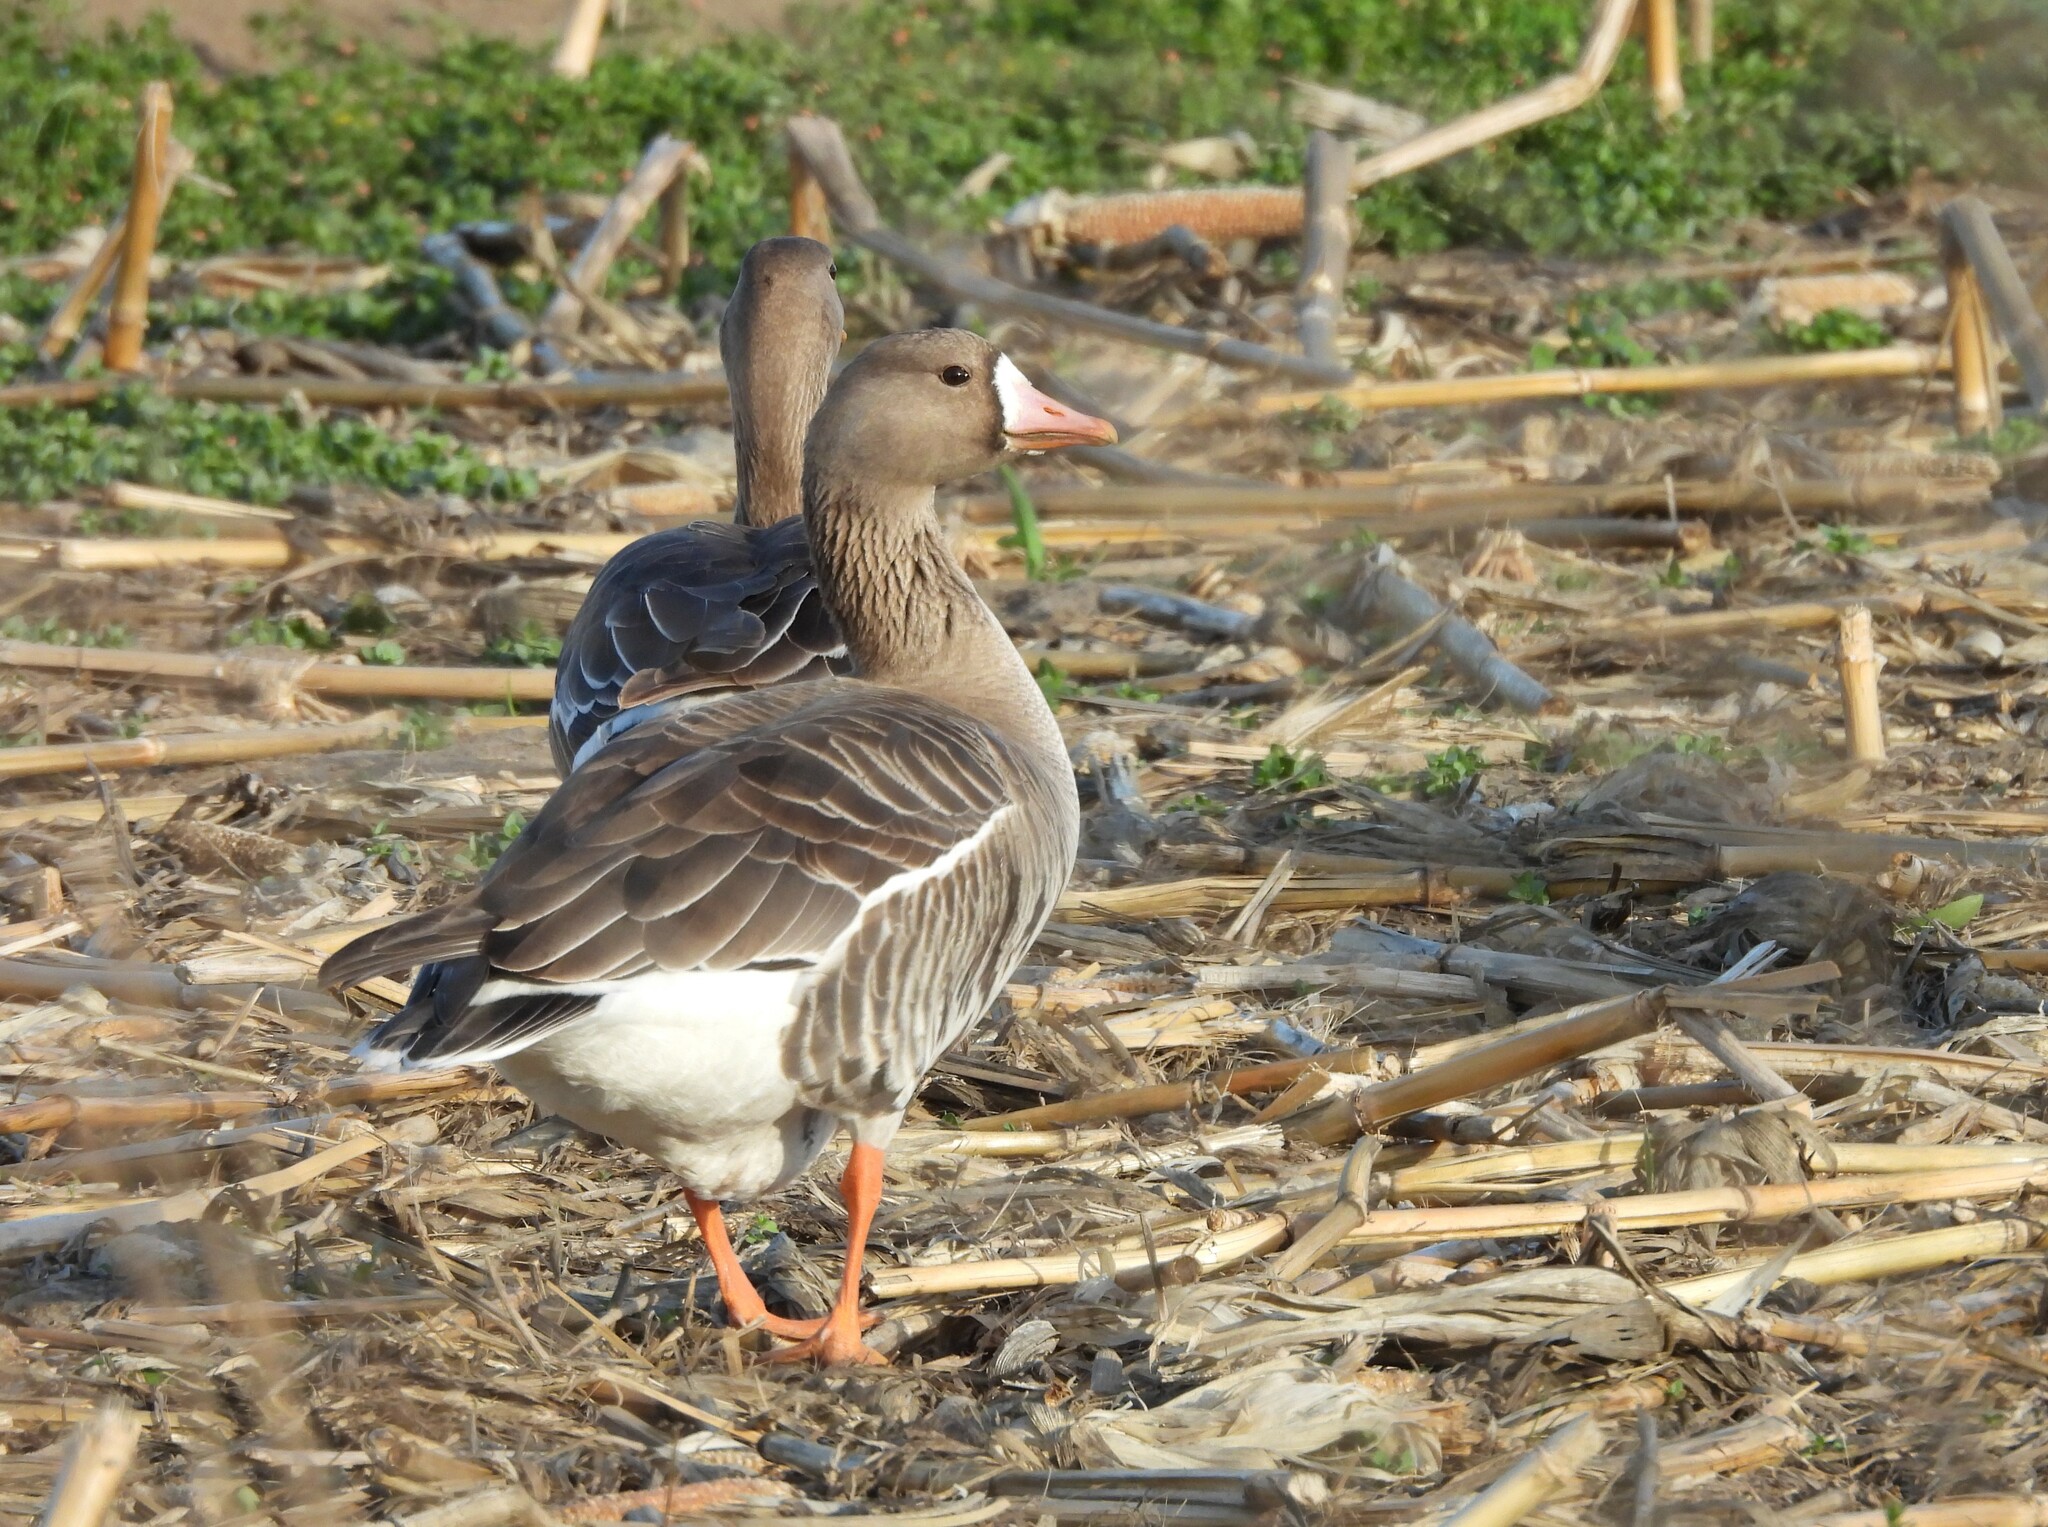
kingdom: Animalia
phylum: Chordata
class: Aves
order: Anseriformes
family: Anatidae
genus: Anser
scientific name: Anser albifrons
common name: Greater white-fronted goose
